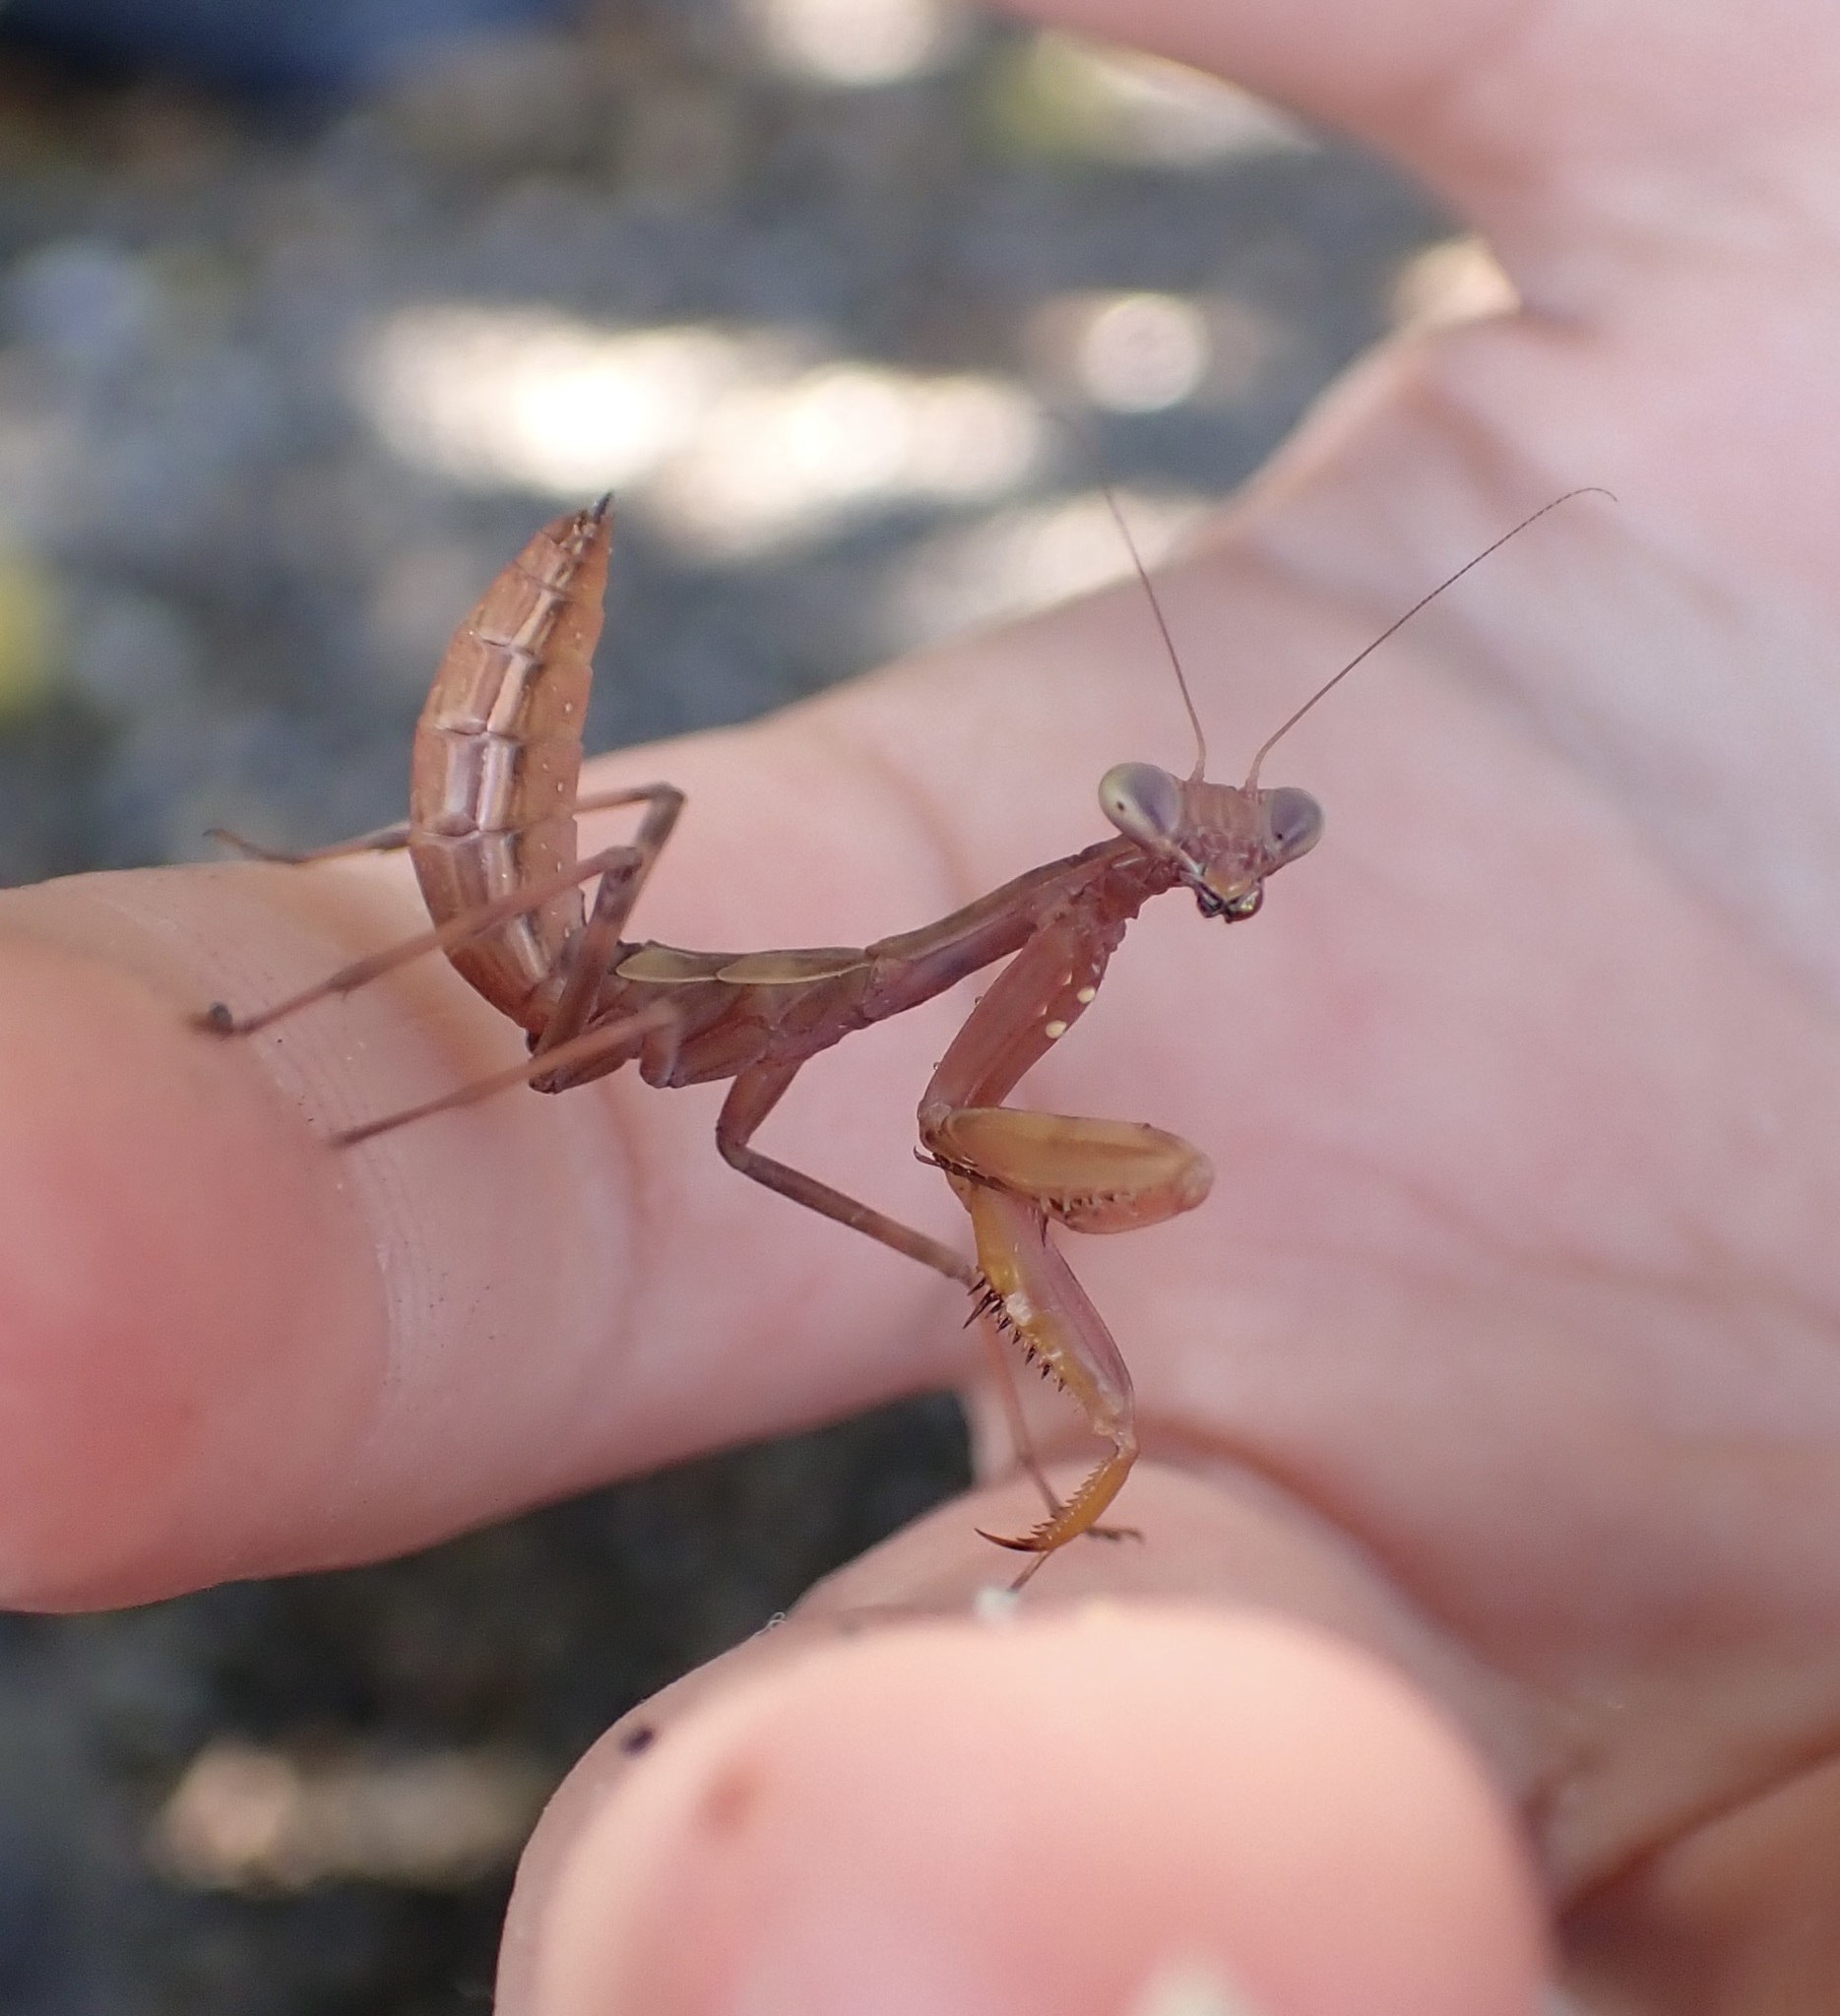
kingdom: Animalia
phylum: Arthropoda
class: Insecta
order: Mantodea
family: Mantidae
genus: Hierodula
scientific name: Hierodula patellifera
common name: Asian mantis
